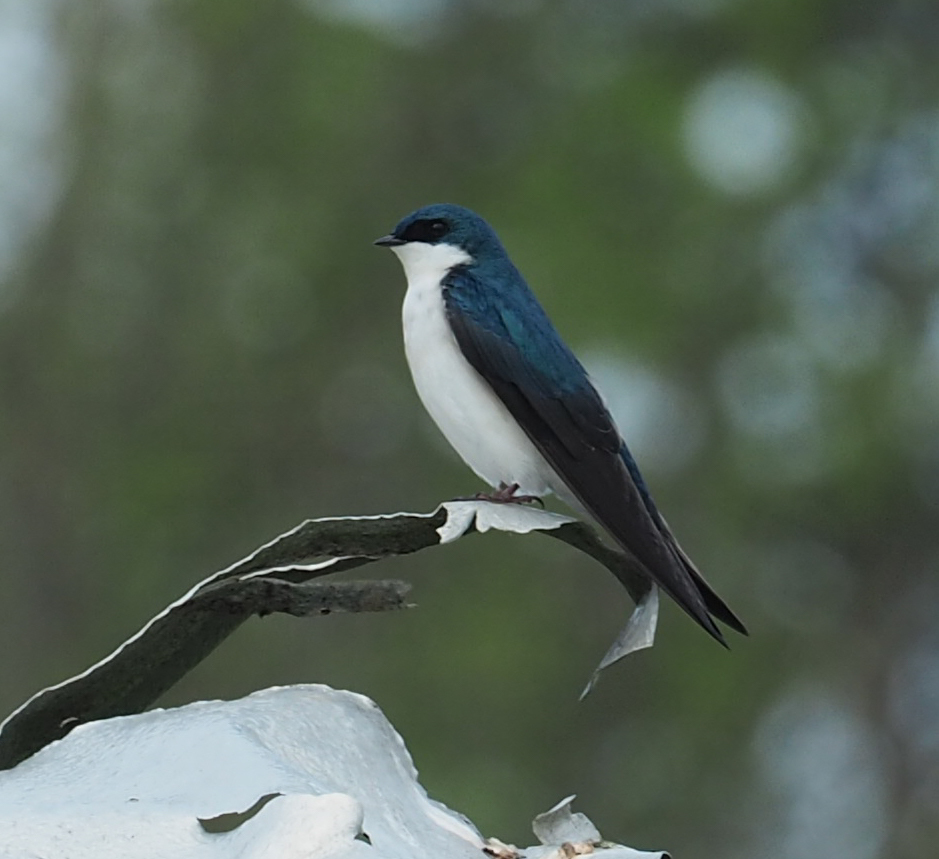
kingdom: Animalia
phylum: Chordata
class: Aves
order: Passeriformes
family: Hirundinidae
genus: Tachycineta
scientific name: Tachycineta bicolor
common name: Tree swallow
